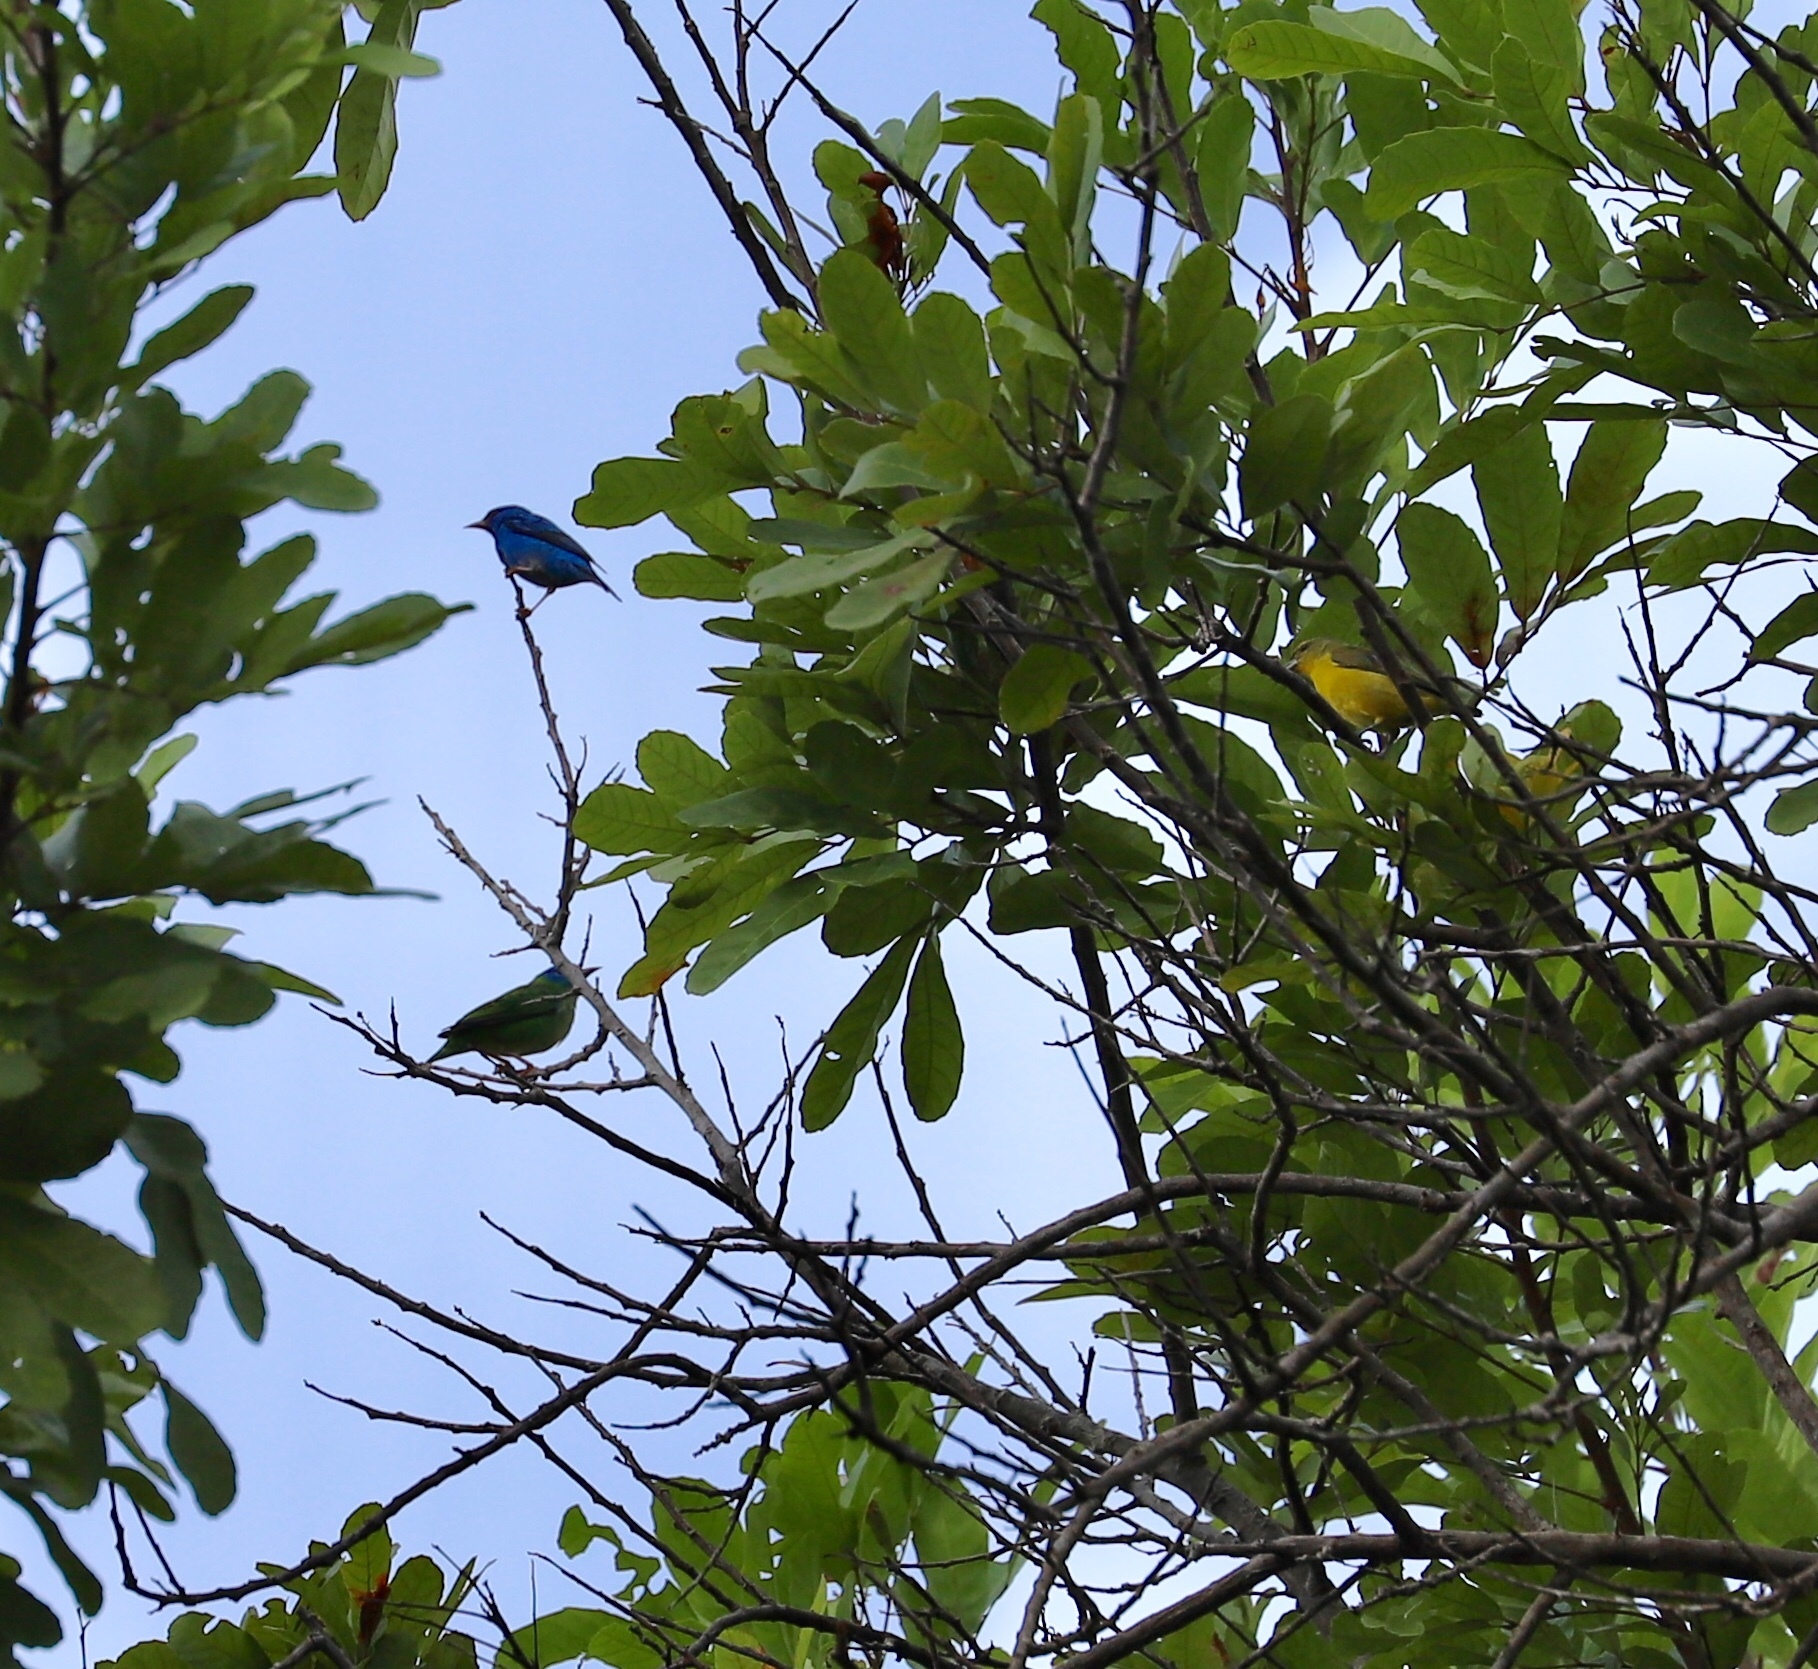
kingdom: Animalia
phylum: Chordata
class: Aves
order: Passeriformes
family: Thraupidae
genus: Dacnis
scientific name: Dacnis cayana
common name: Blue dacnis
